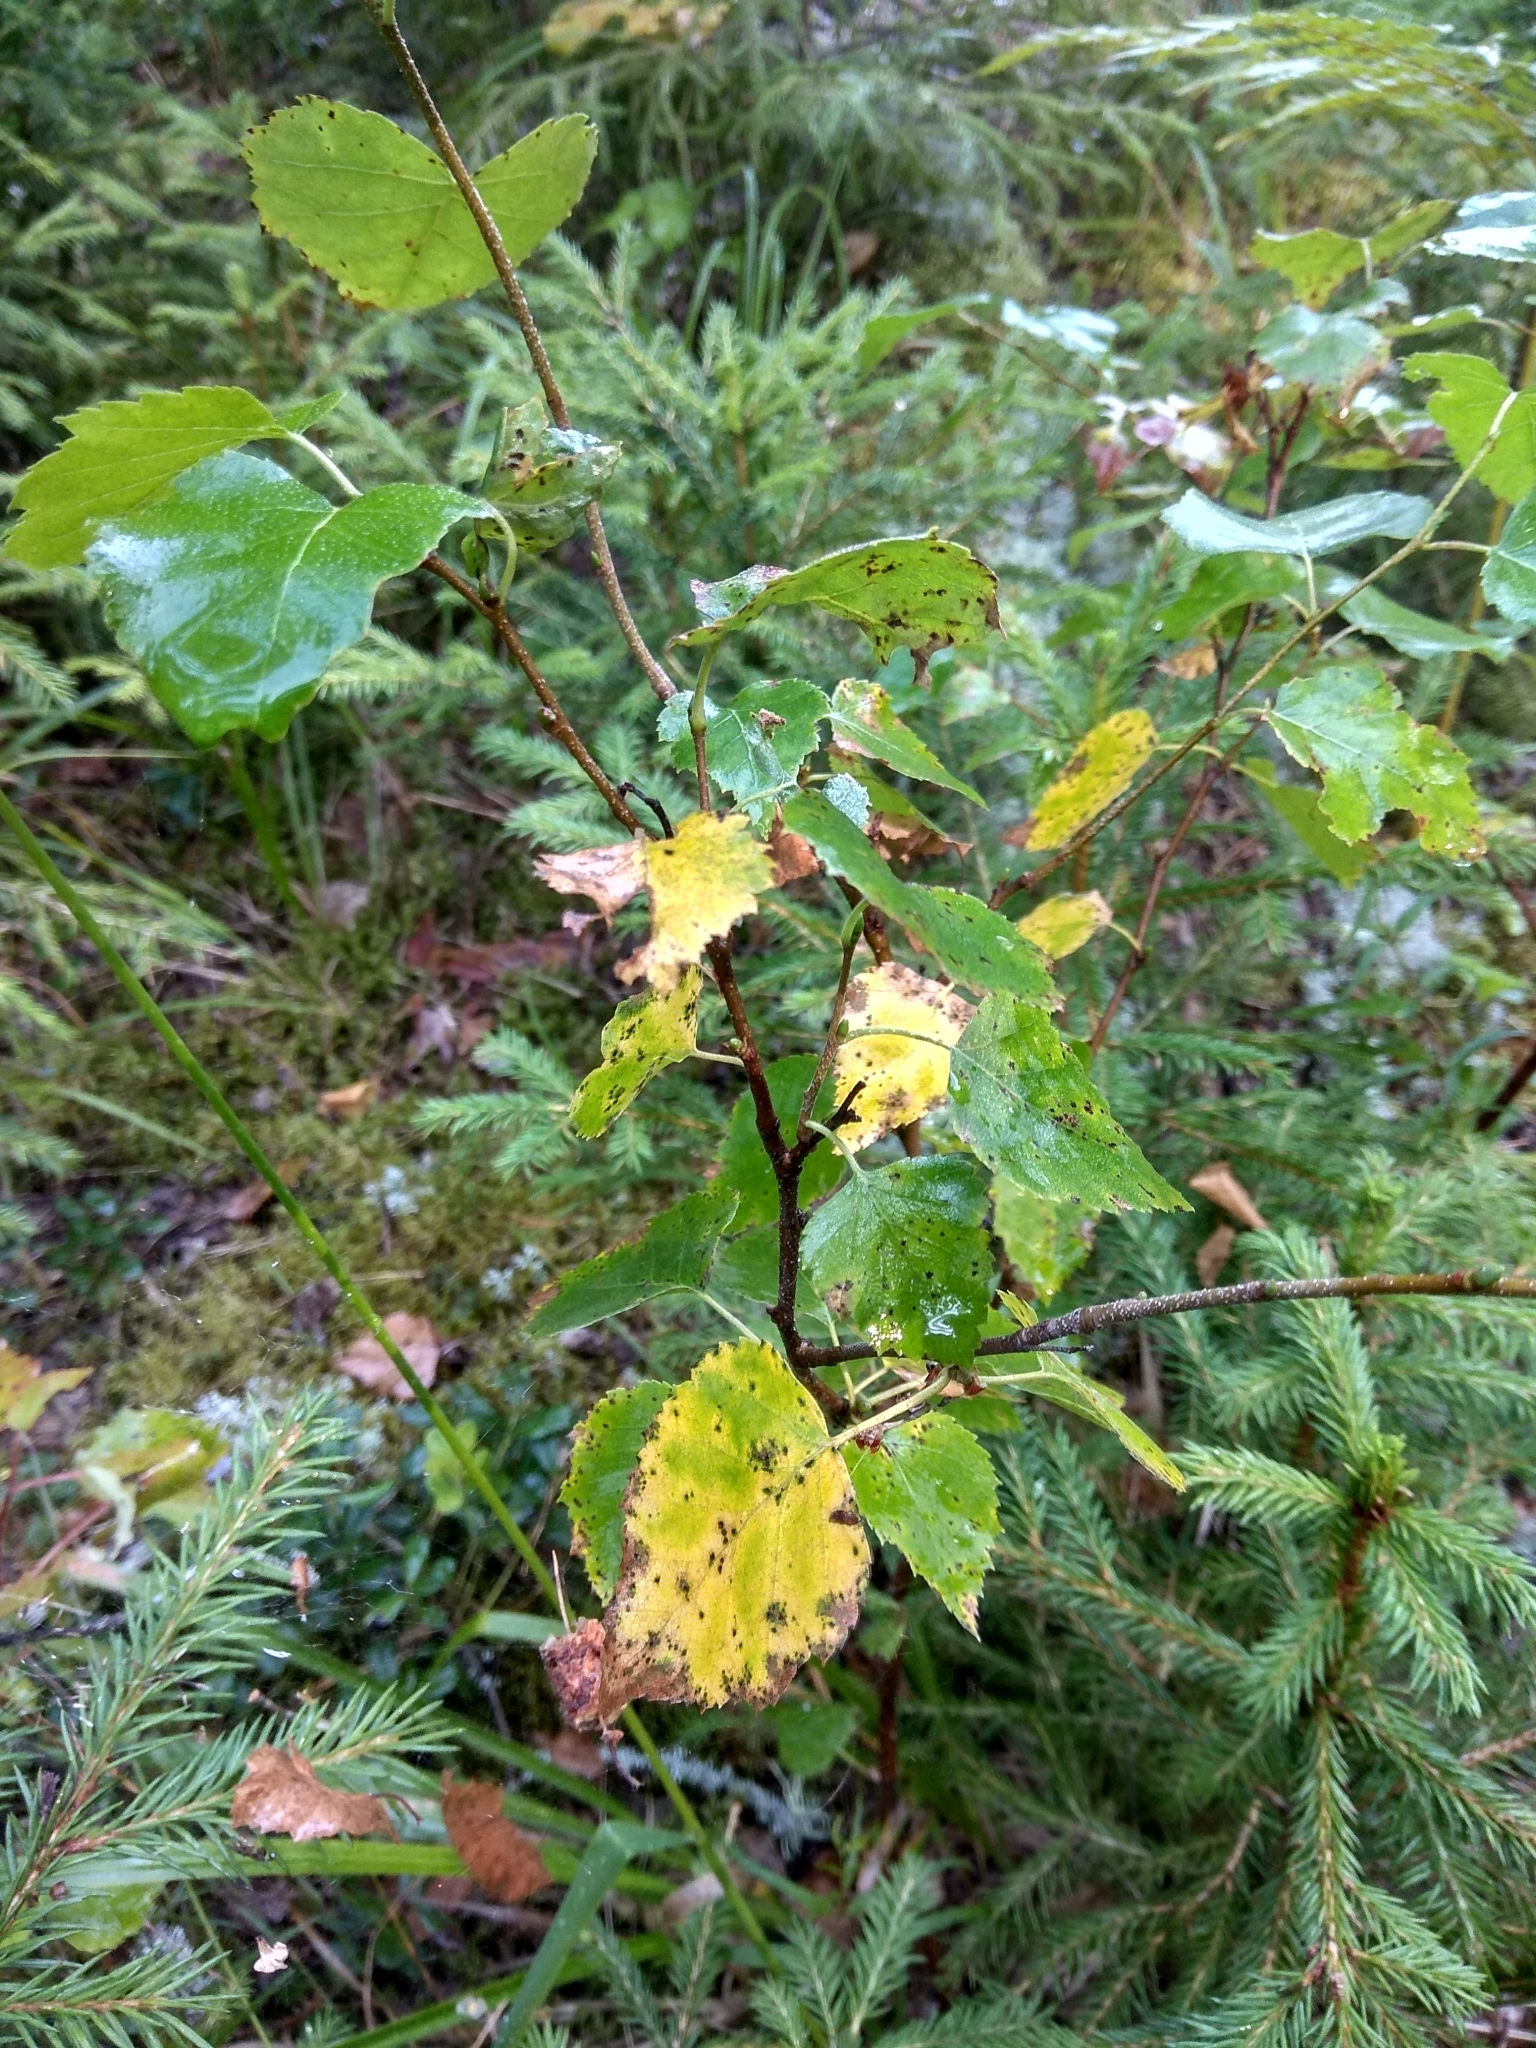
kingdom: Plantae
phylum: Tracheophyta
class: Magnoliopsida
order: Fagales
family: Betulaceae
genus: Betula
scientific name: Betula pendula
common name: Silver birch
